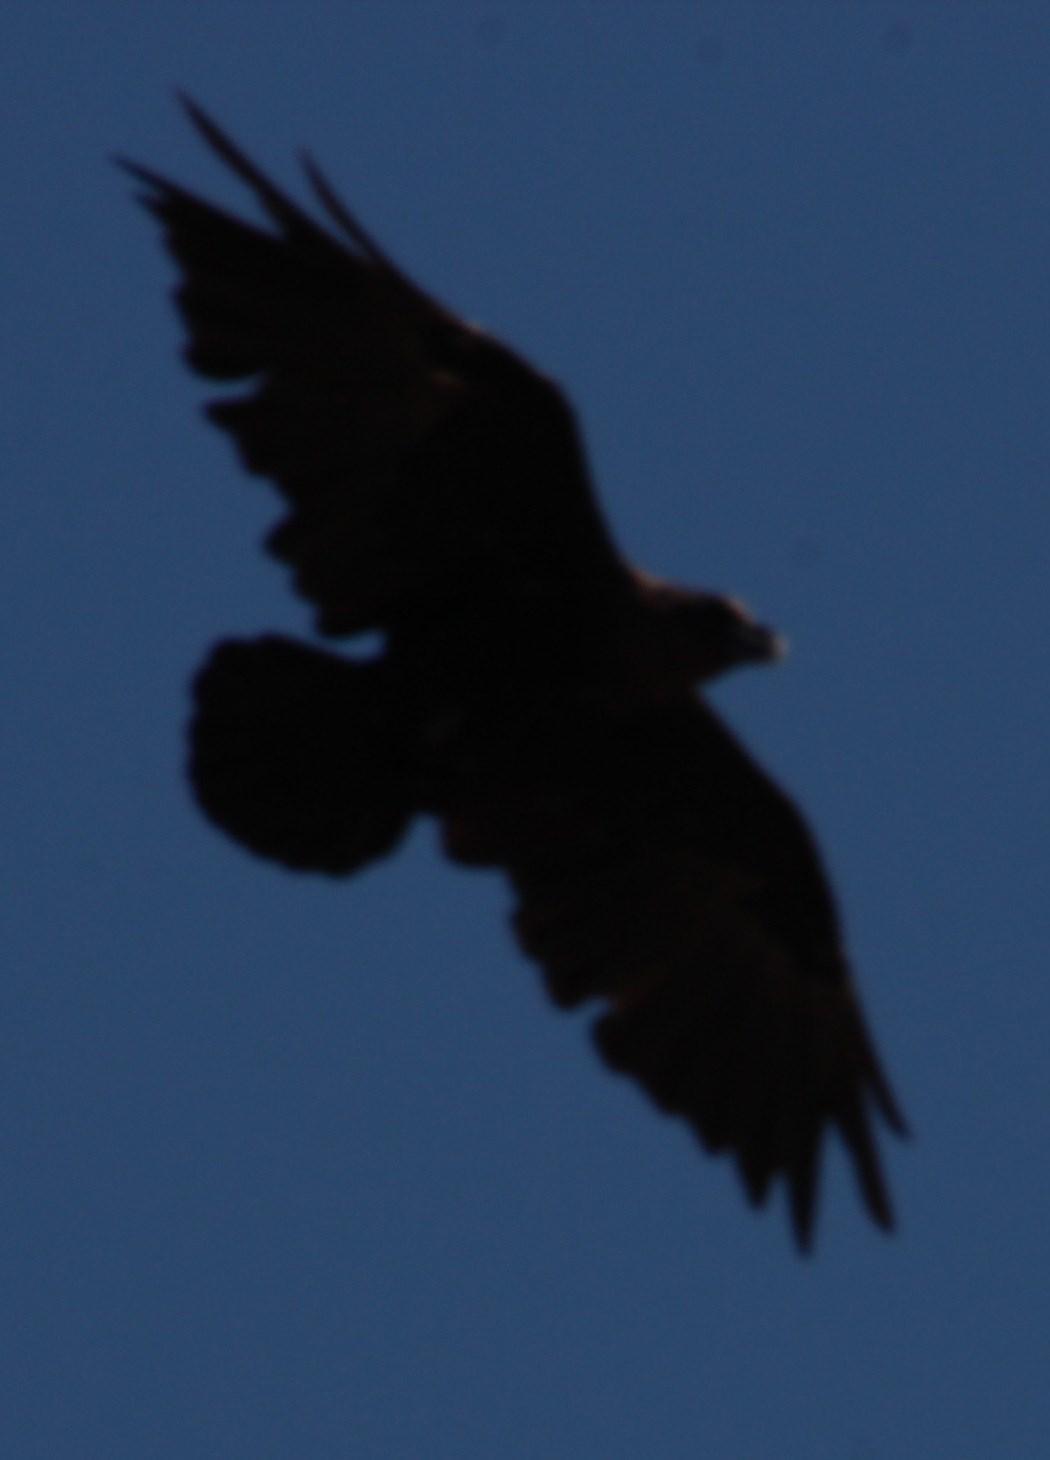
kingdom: Animalia
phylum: Chordata
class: Aves
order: Passeriformes
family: Corvidae
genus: Corvus
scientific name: Corvus albicollis
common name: White-necked raven
